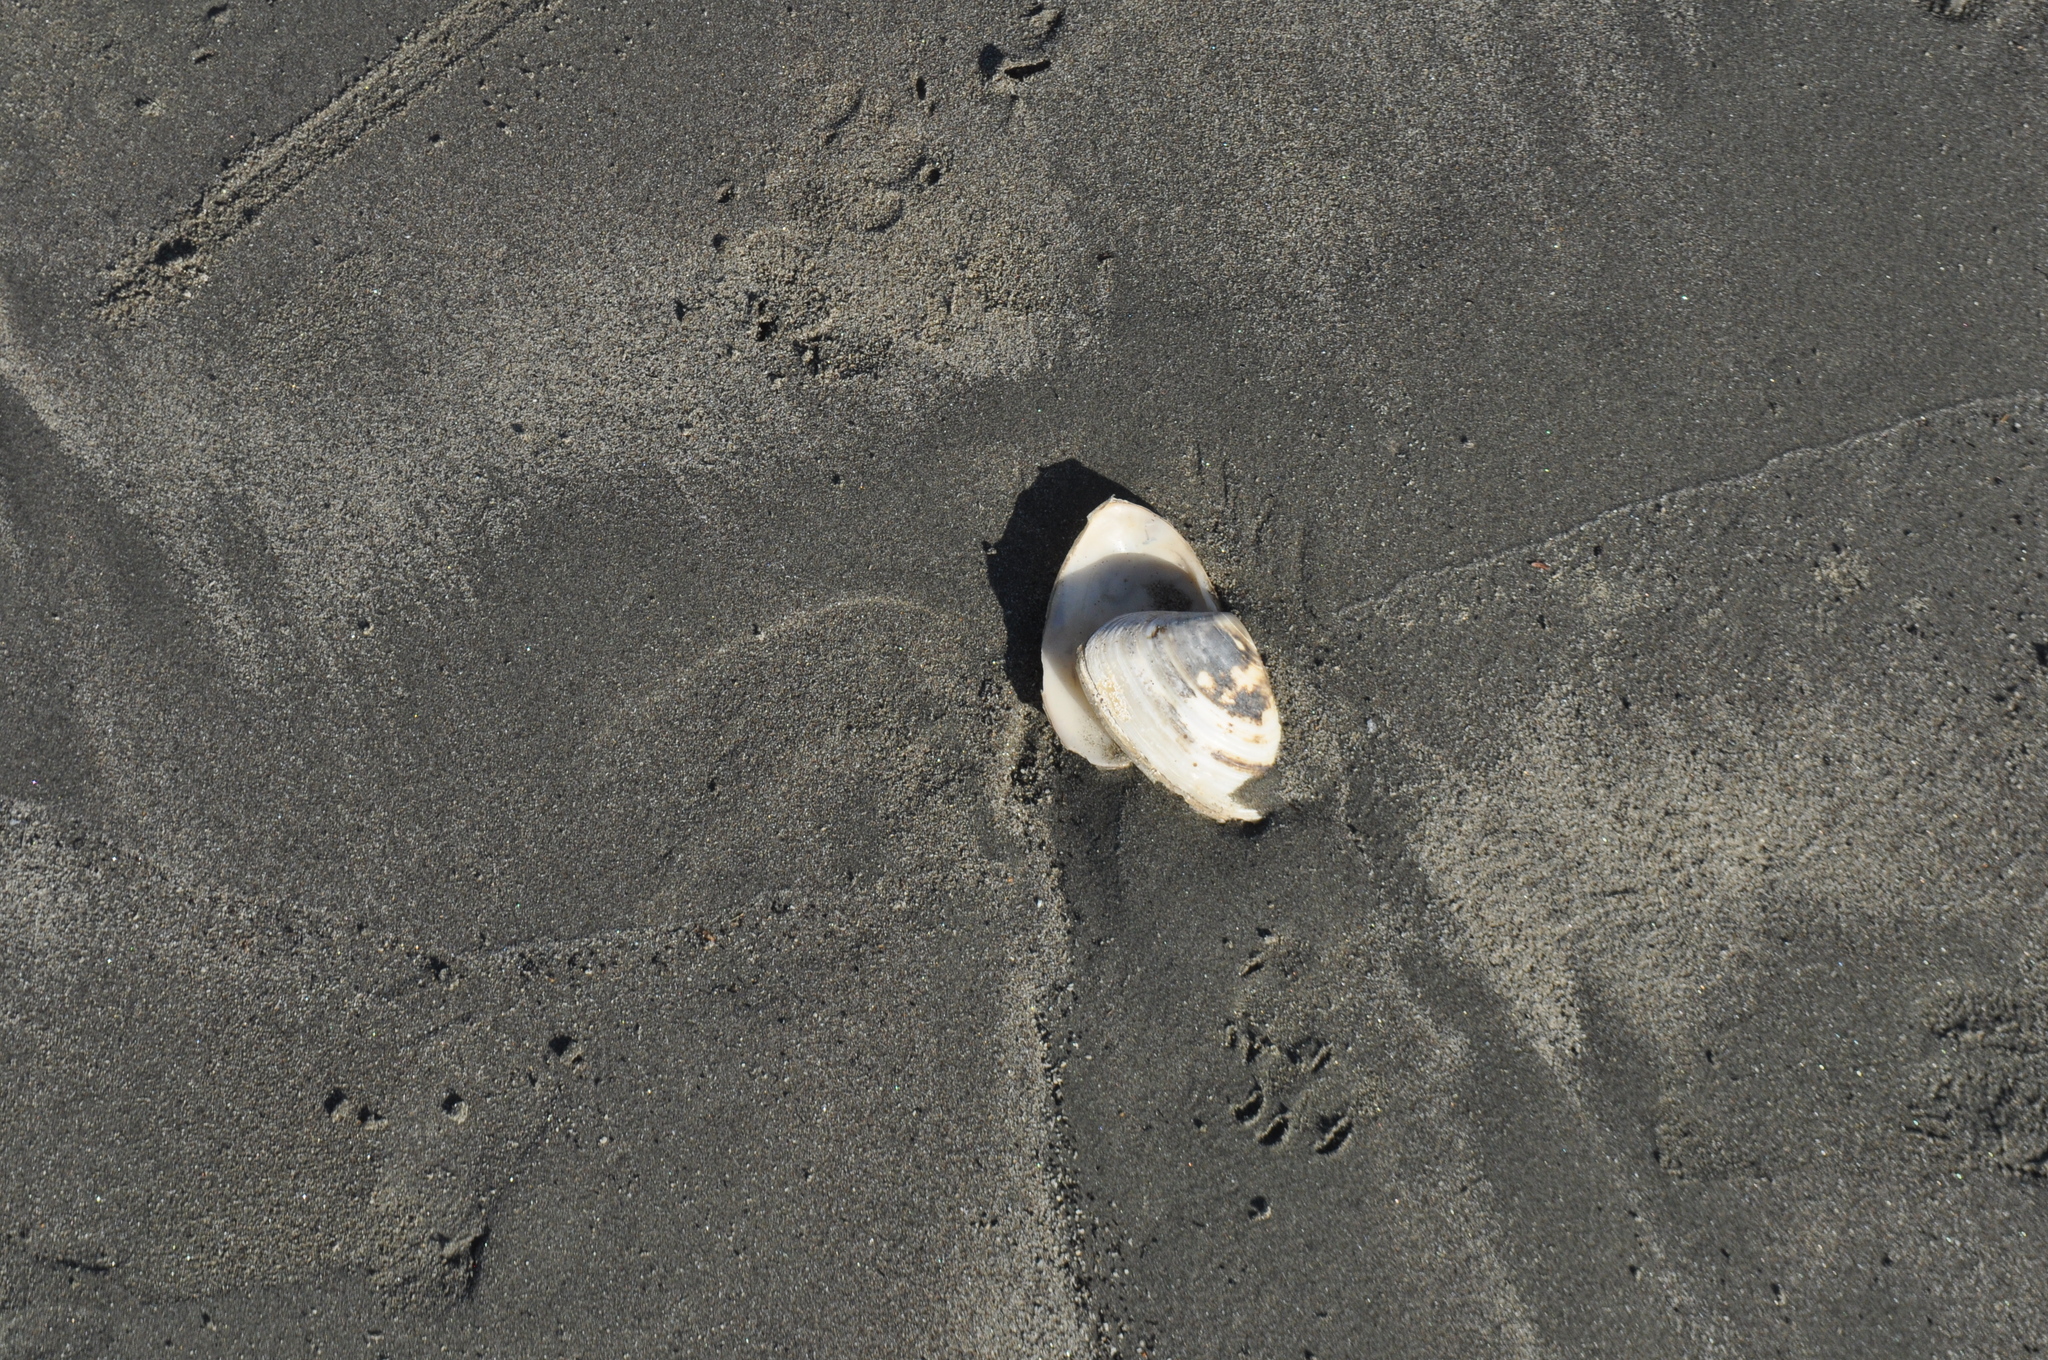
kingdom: Animalia
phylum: Mollusca
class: Bivalvia
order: Venerida
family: Mesodesmatidae
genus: Paphies
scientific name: Paphies donacina
